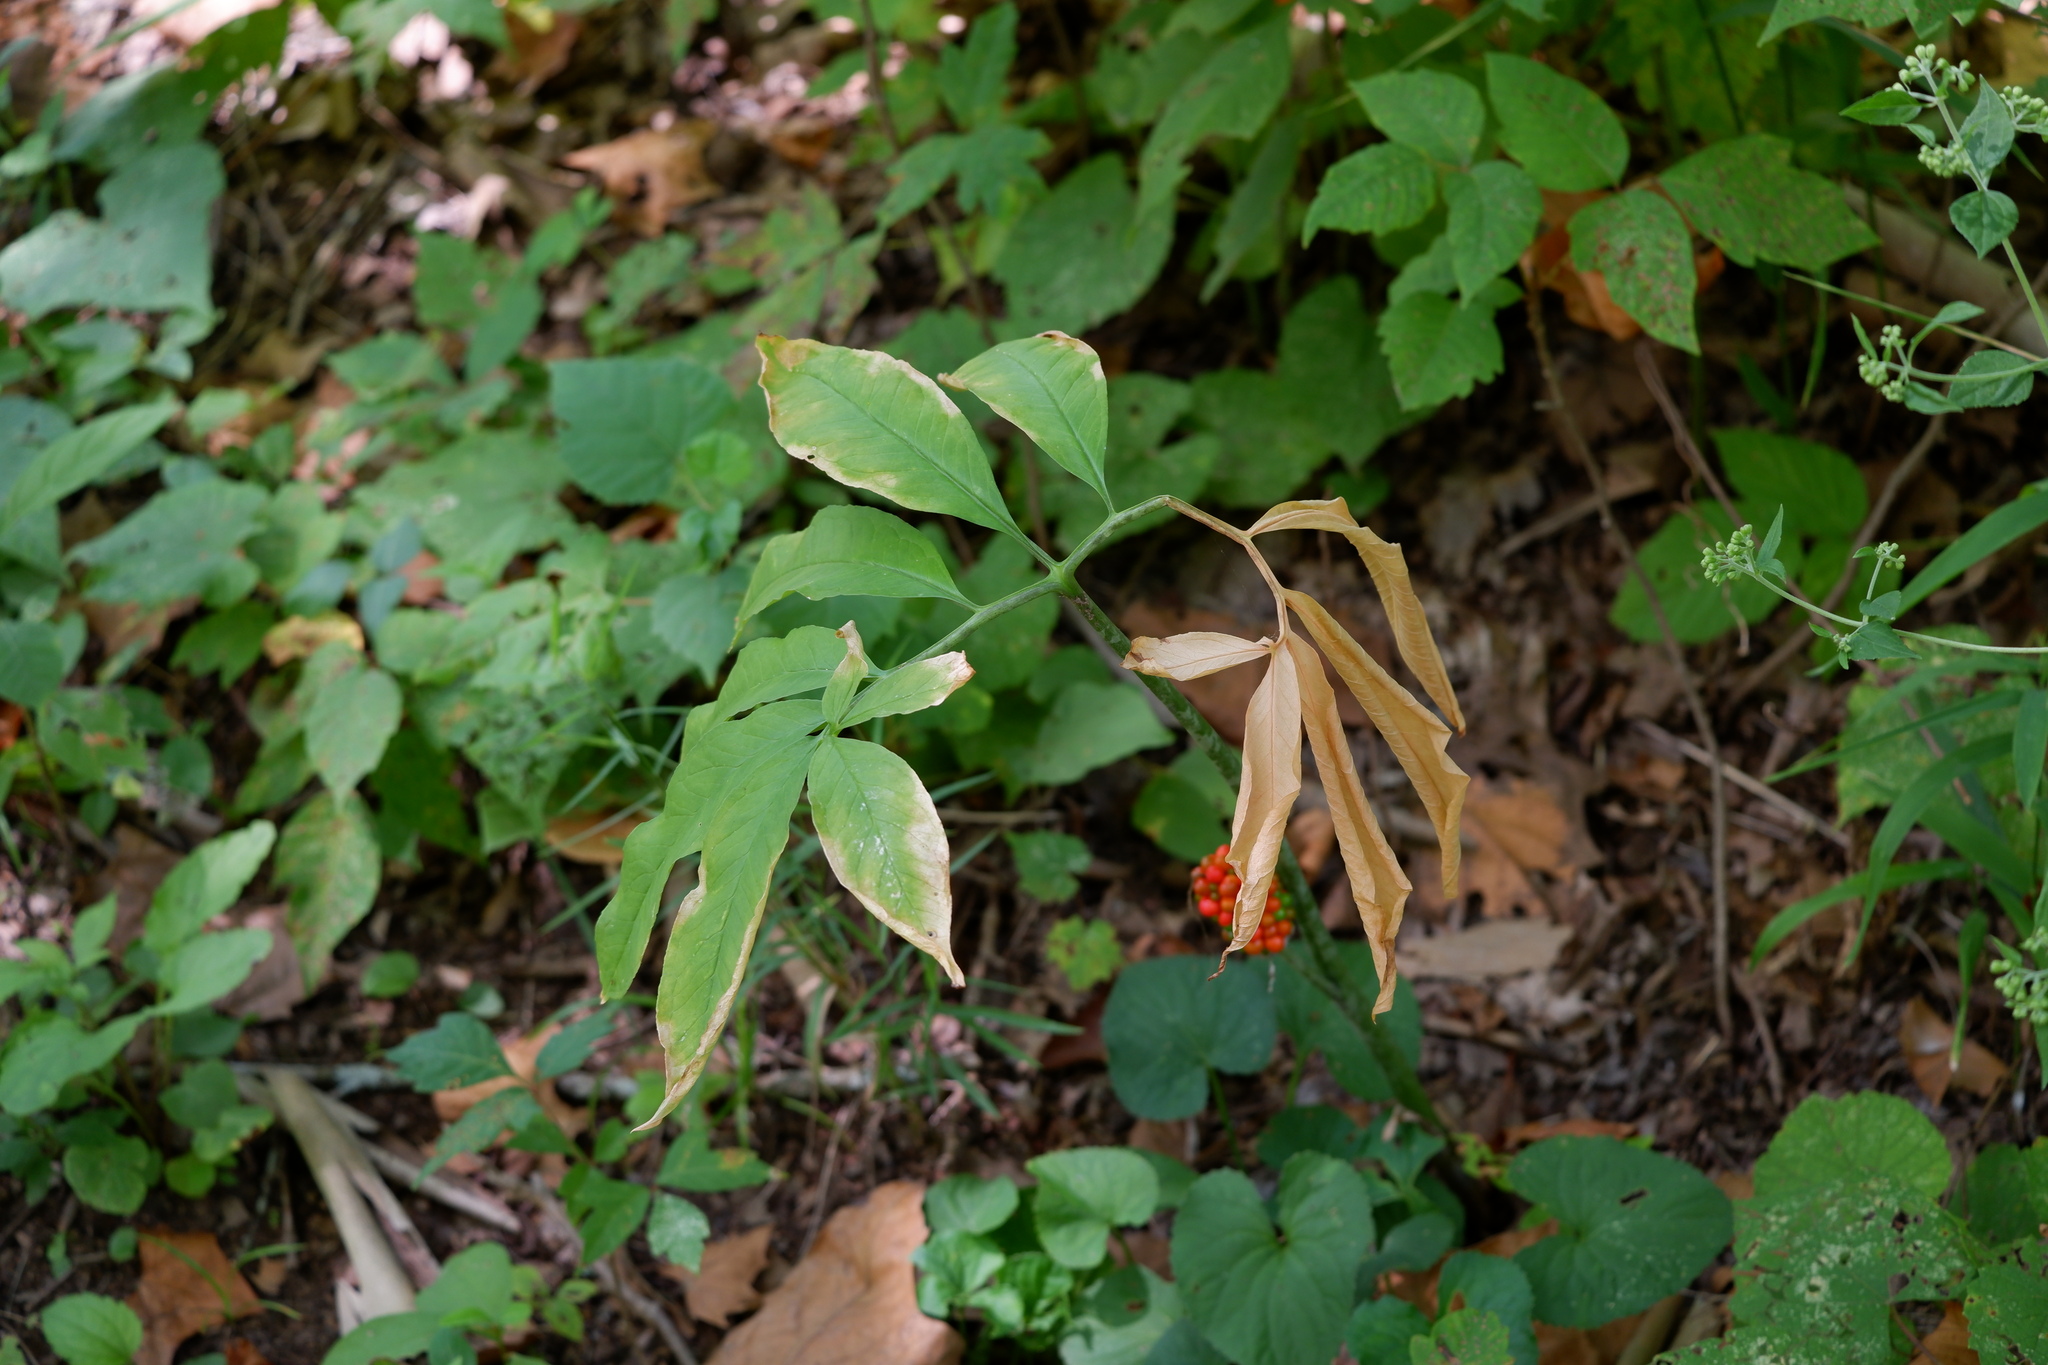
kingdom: Plantae
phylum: Tracheophyta
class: Liliopsida
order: Alismatales
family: Araceae
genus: Arisaema
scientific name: Arisaema dracontium
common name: Dragon-arum
